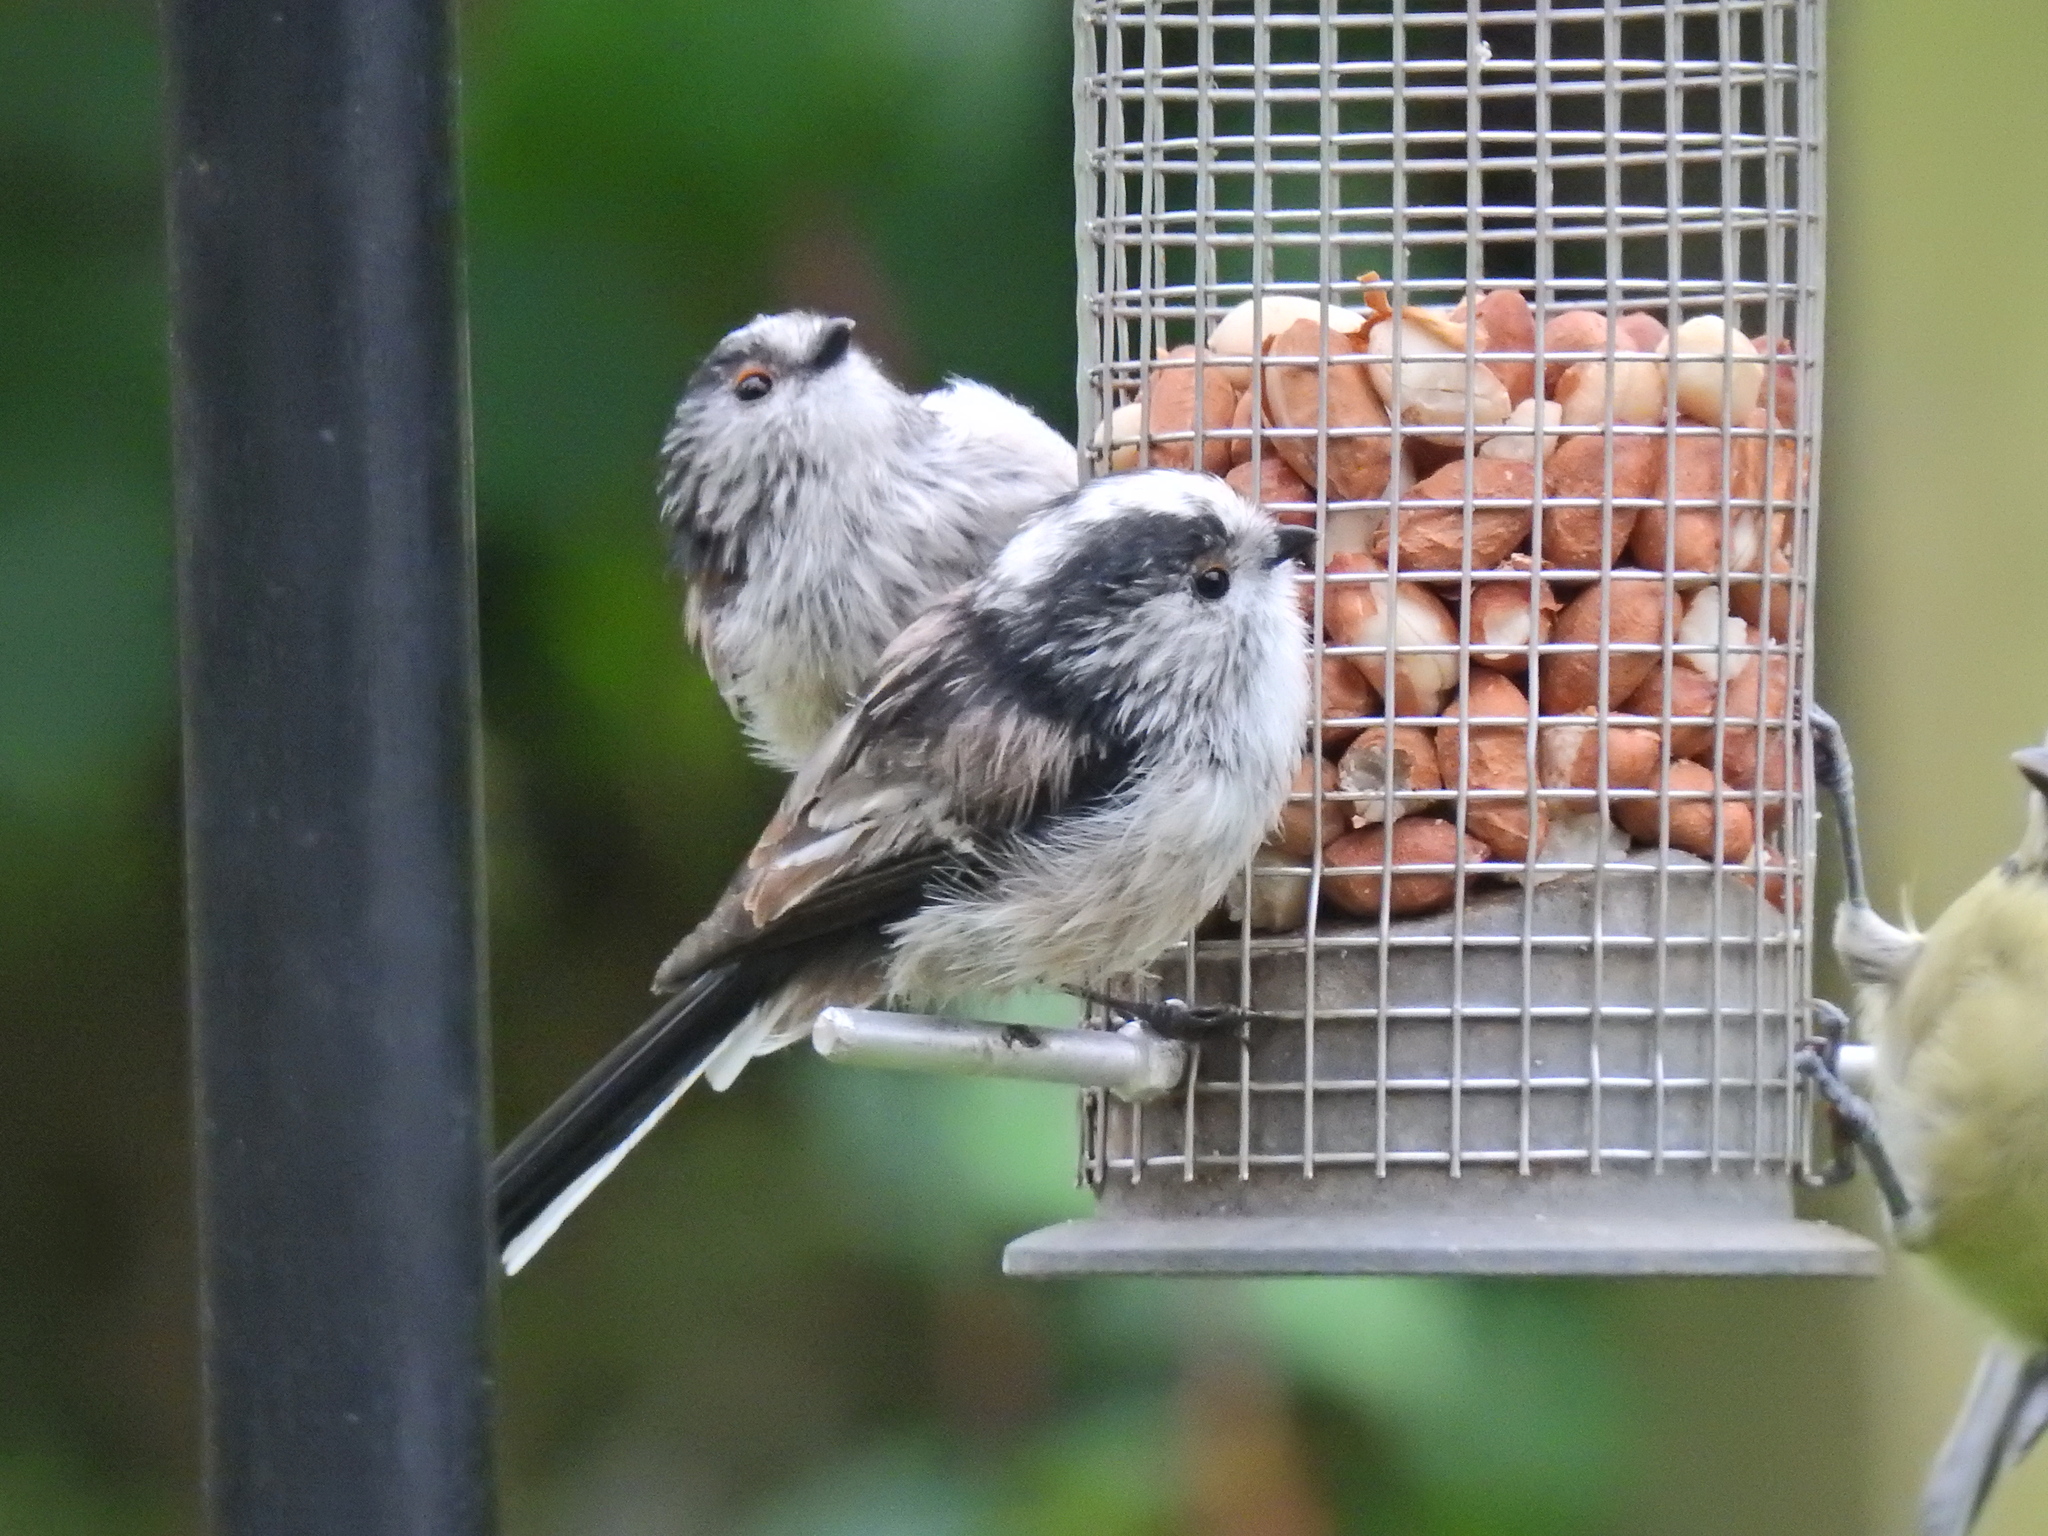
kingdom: Animalia
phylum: Chordata
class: Aves
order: Passeriformes
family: Aegithalidae
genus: Aegithalos
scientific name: Aegithalos caudatus
